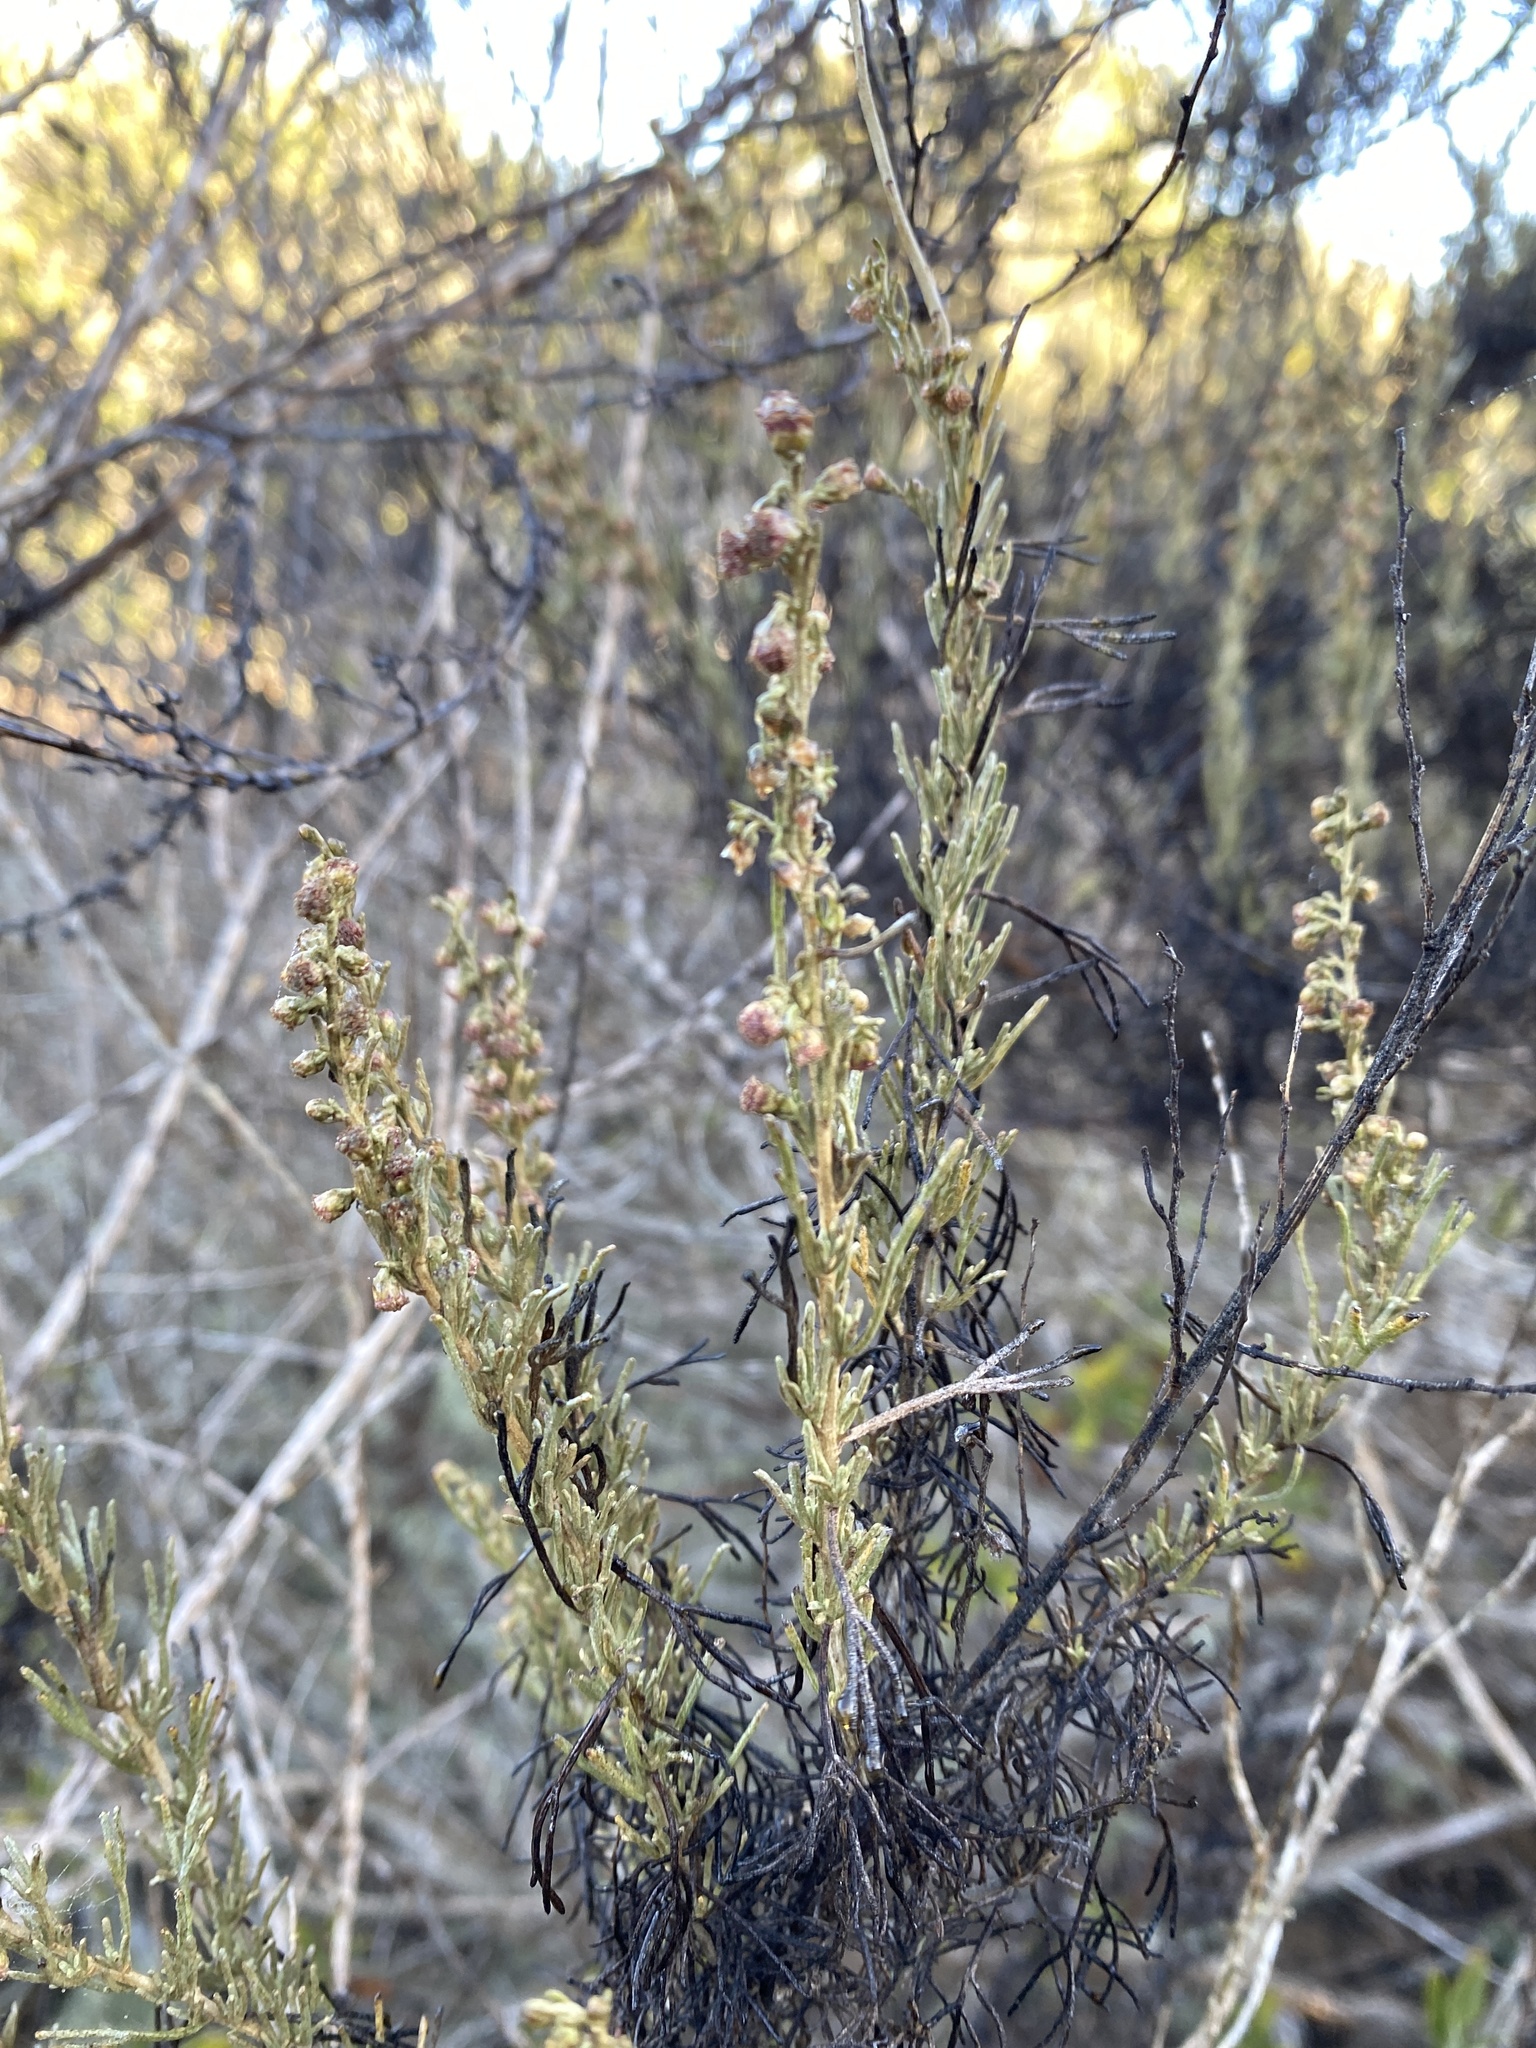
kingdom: Plantae
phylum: Tracheophyta
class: Magnoliopsida
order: Asterales
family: Asteraceae
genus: Artemisia
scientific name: Artemisia californica
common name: California sagebrush
